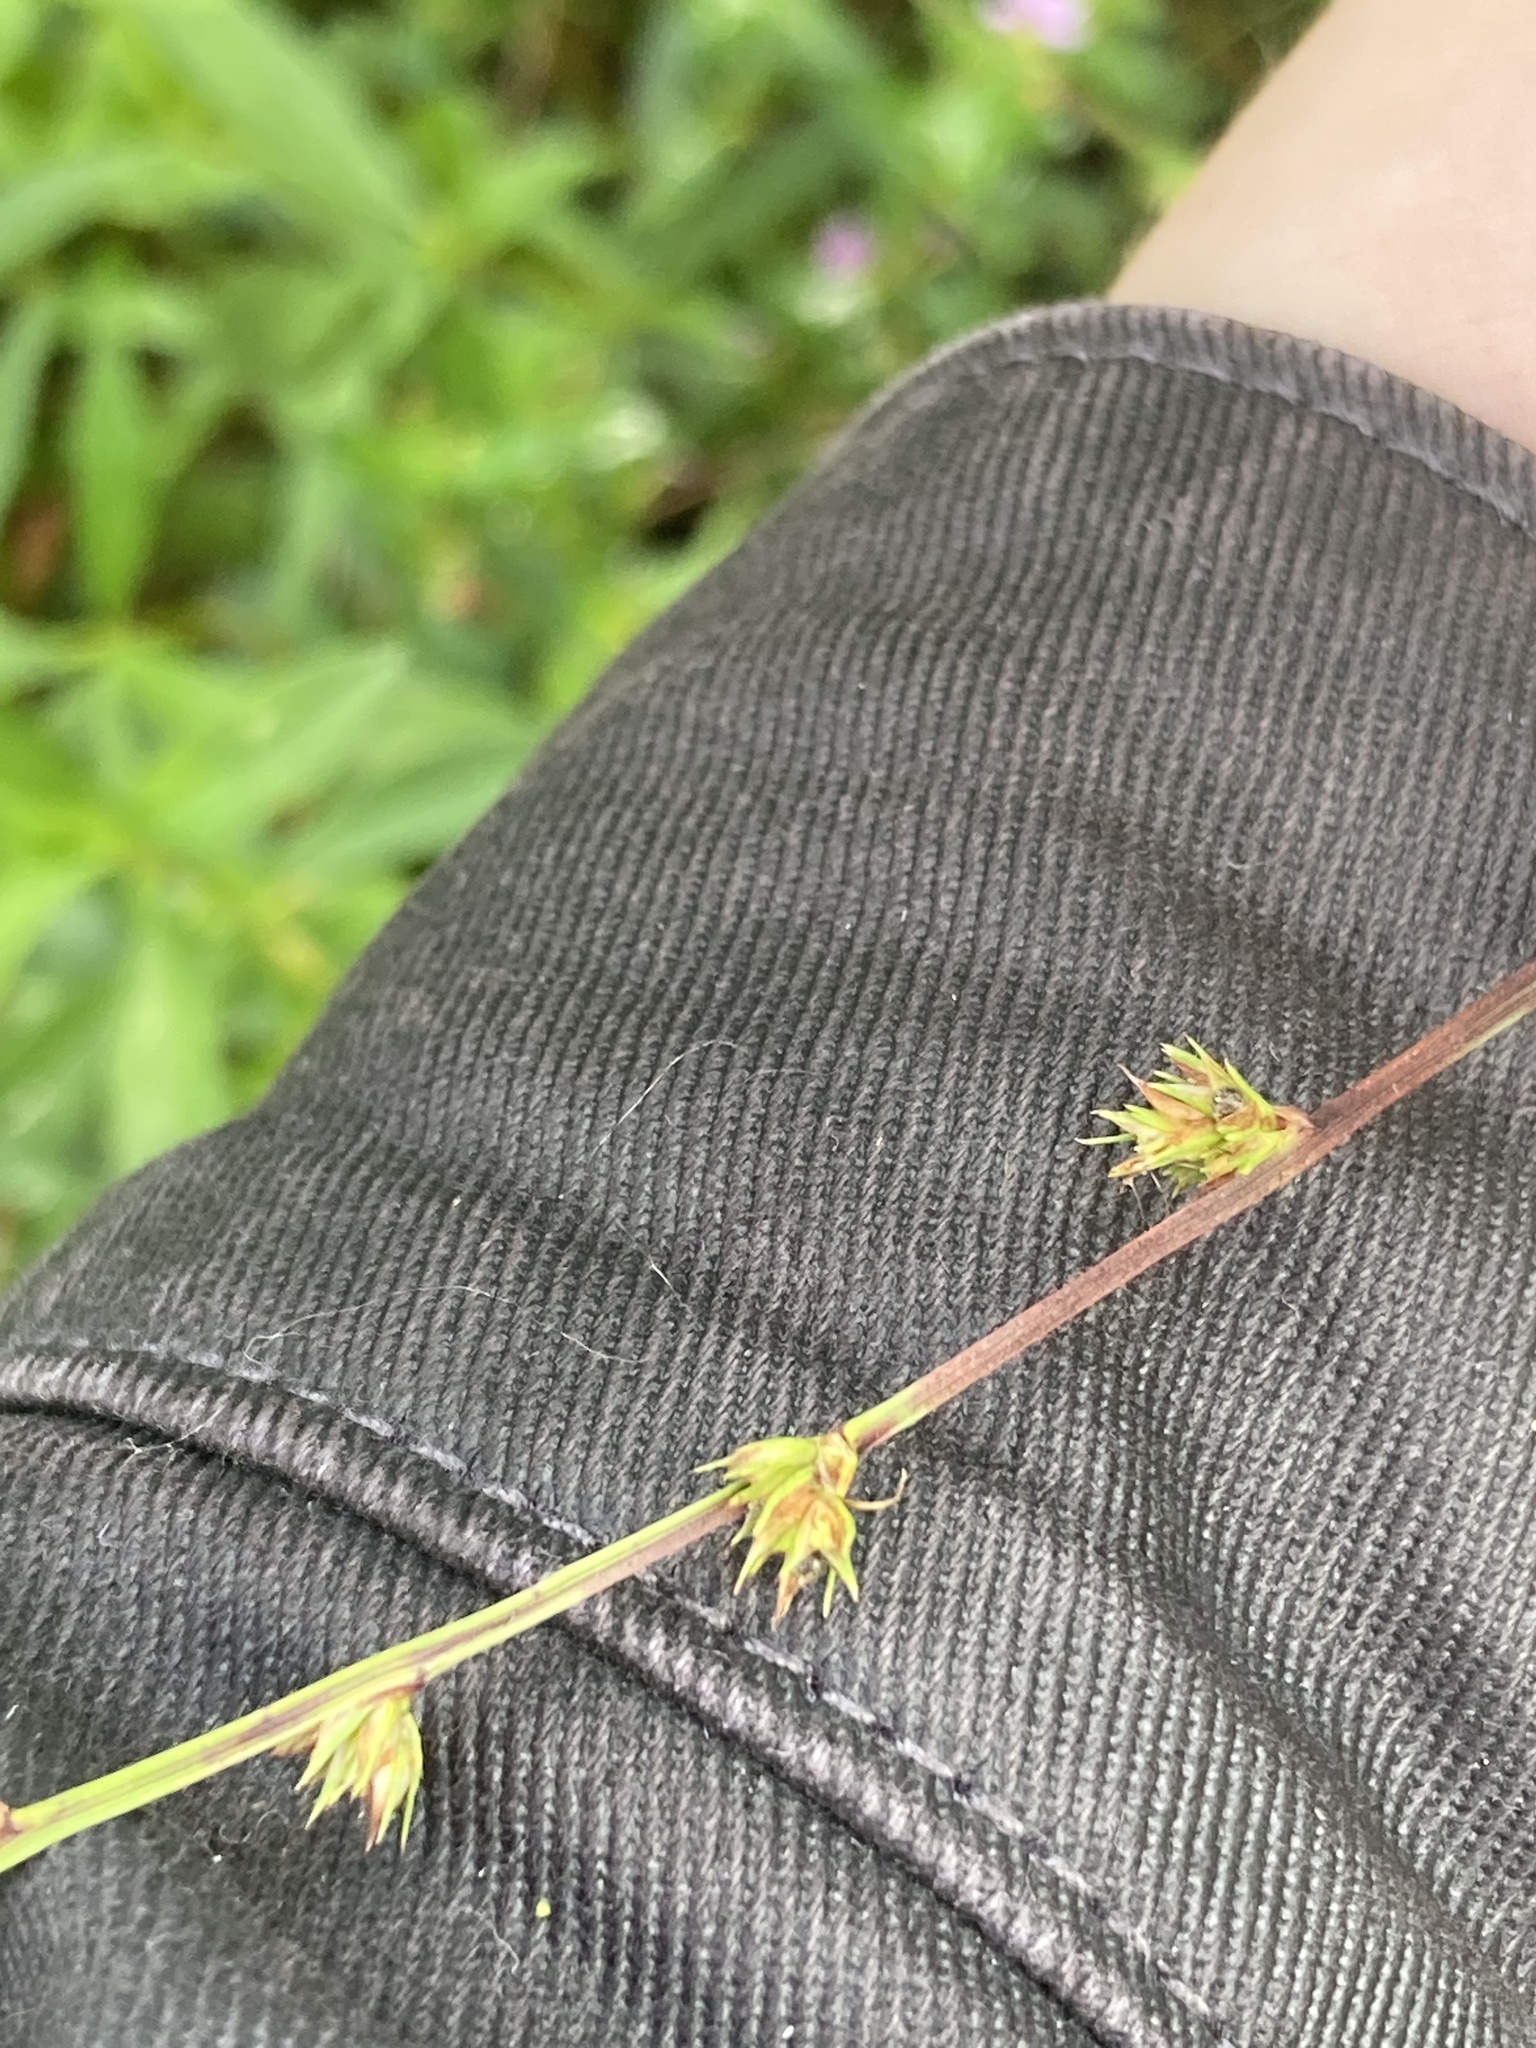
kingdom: Plantae
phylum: Tracheophyta
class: Liliopsida
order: Poales
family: Cyperaceae
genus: Scleria
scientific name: Scleria verticillata
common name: Low nutrush
